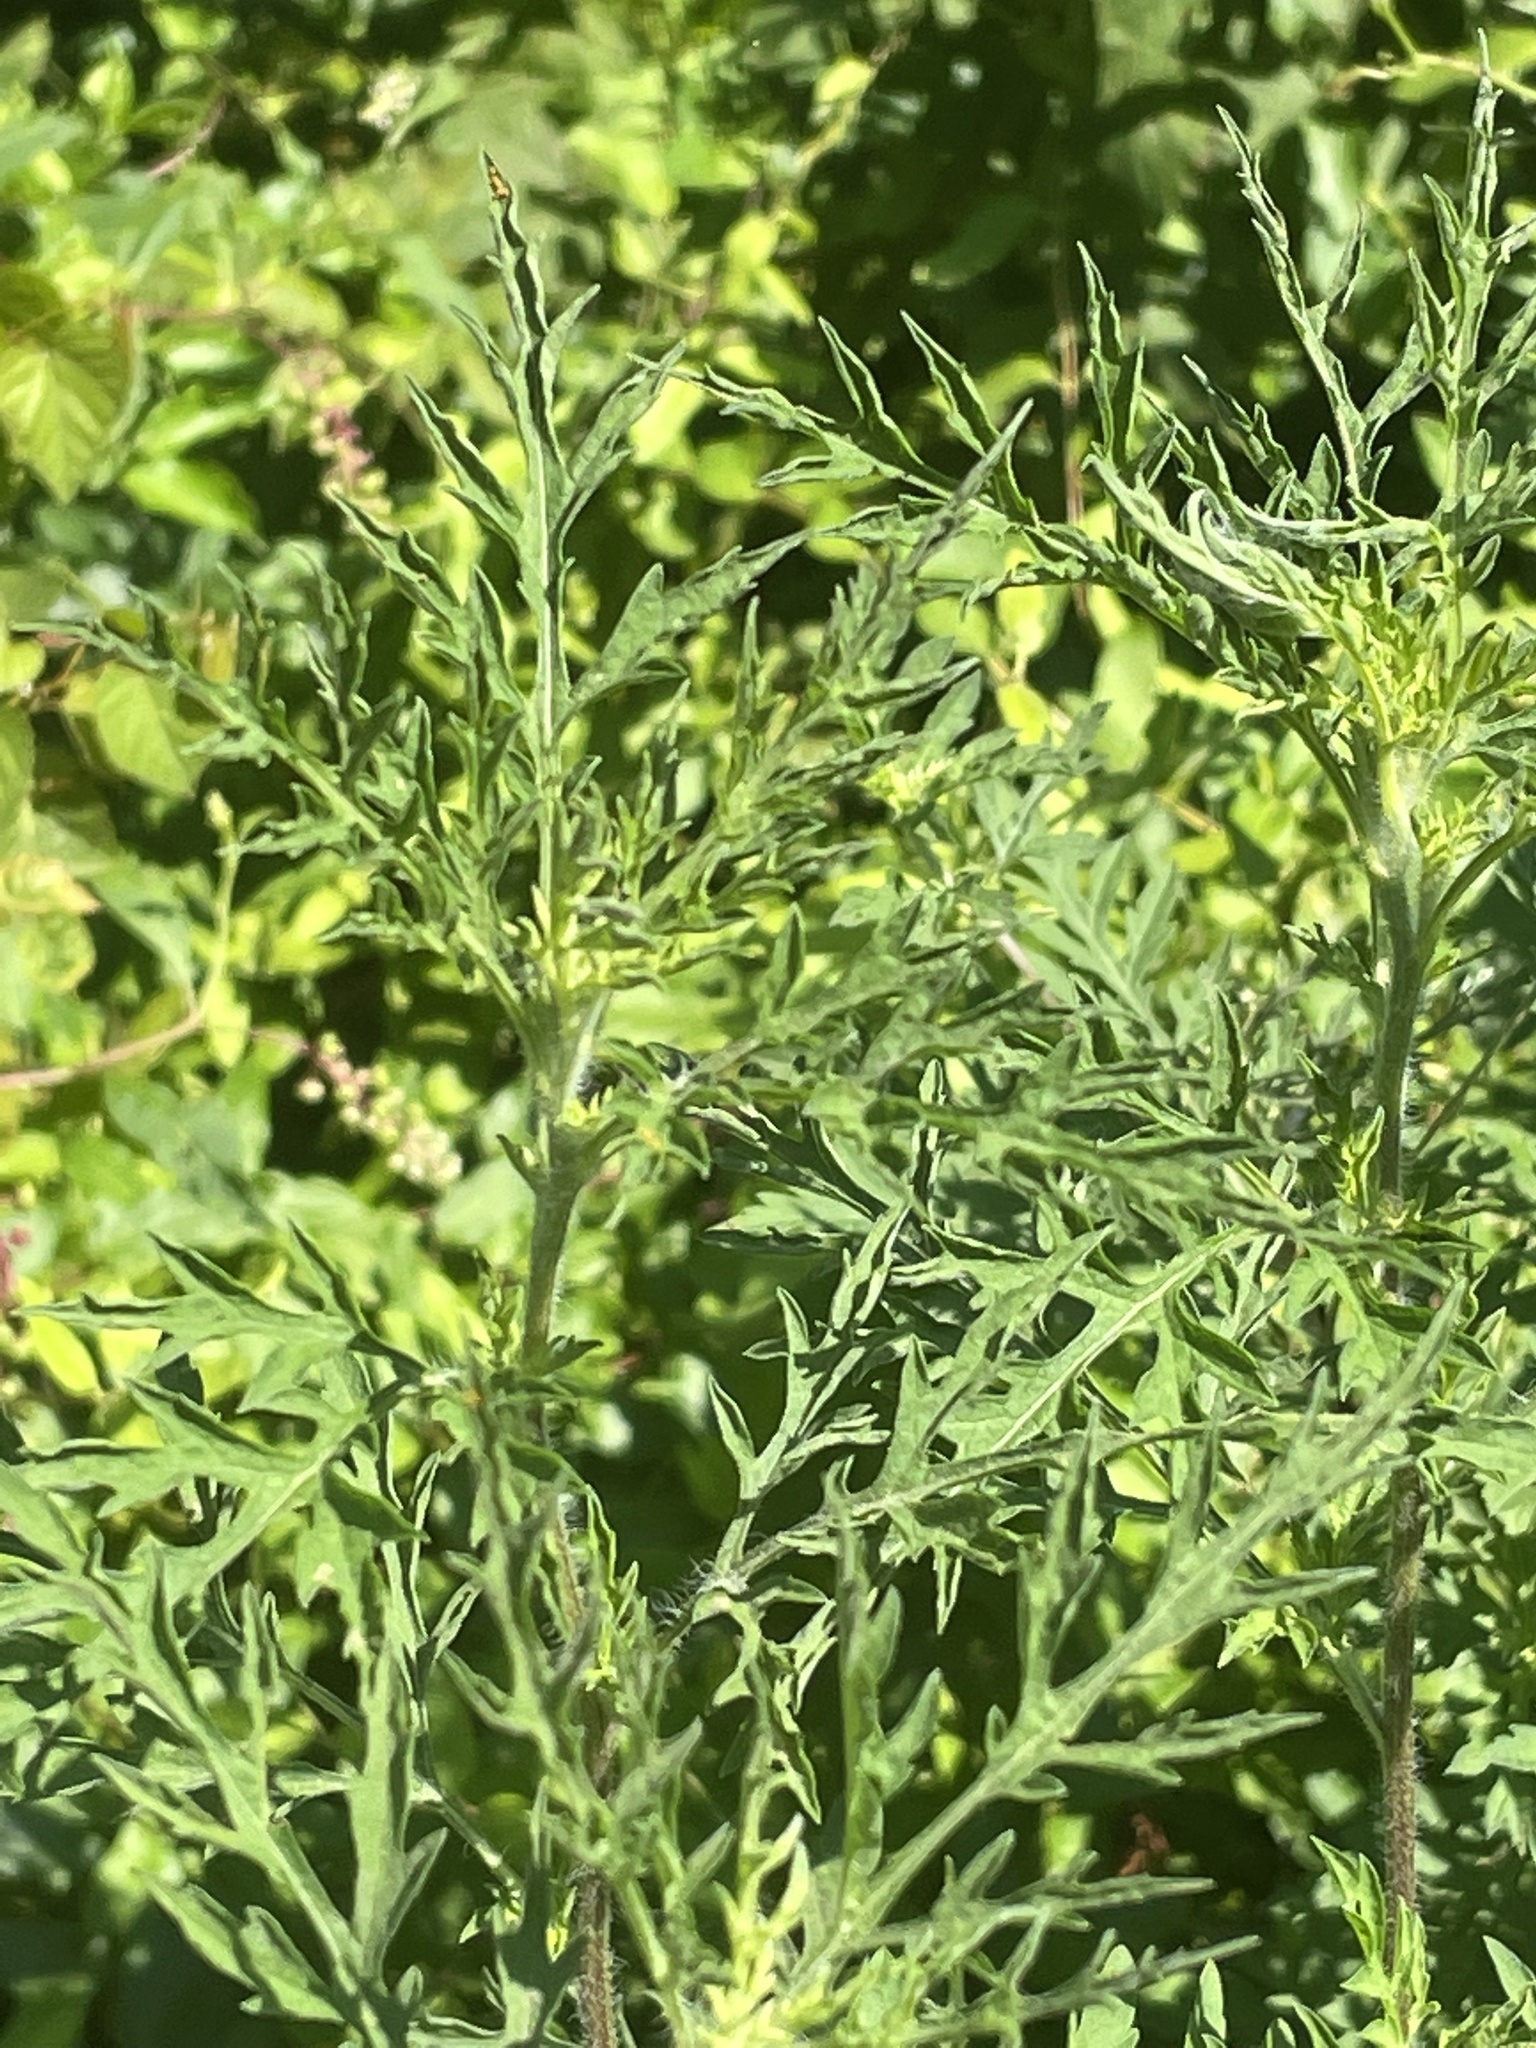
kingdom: Plantae
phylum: Tracheophyta
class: Magnoliopsida
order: Asterales
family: Asteraceae
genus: Ambrosia
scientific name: Ambrosia artemisiifolia
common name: Annual ragweed
